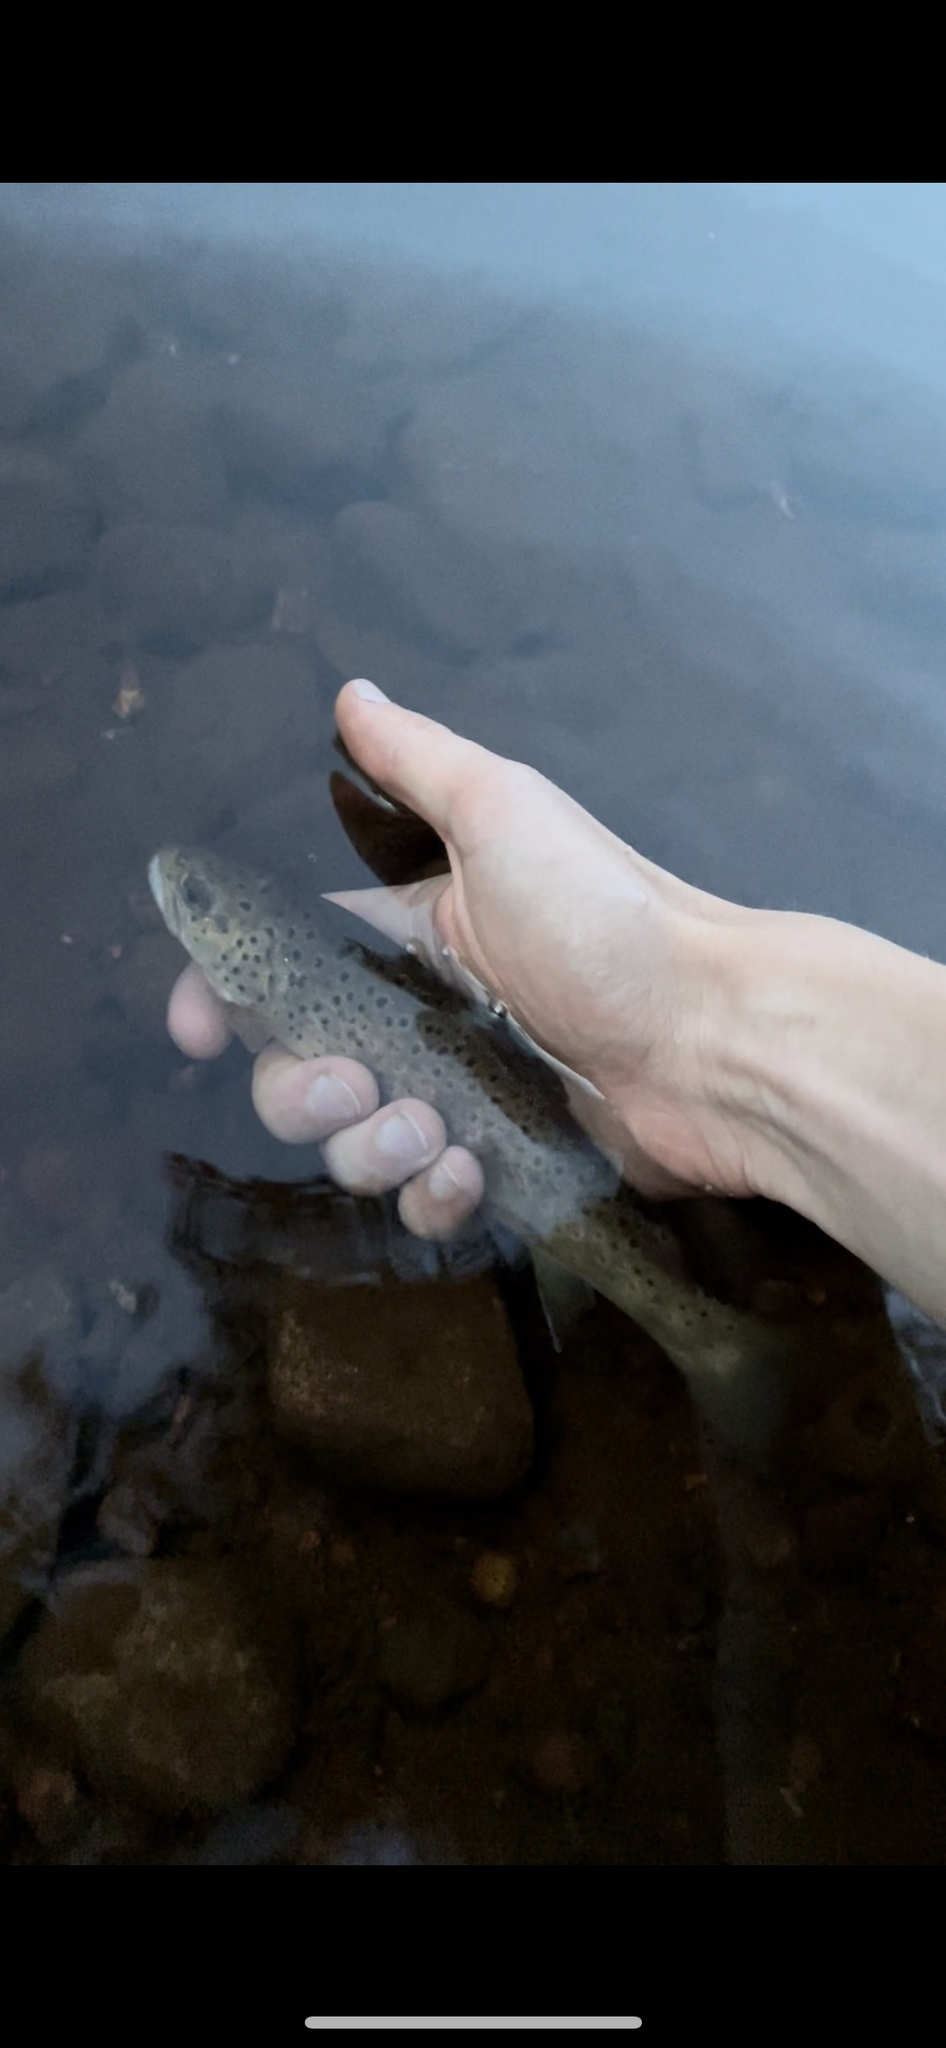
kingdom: Animalia
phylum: Chordata
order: Salmoniformes
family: Salmonidae
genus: Salmo
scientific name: Salmo trutta
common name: Brown trout
